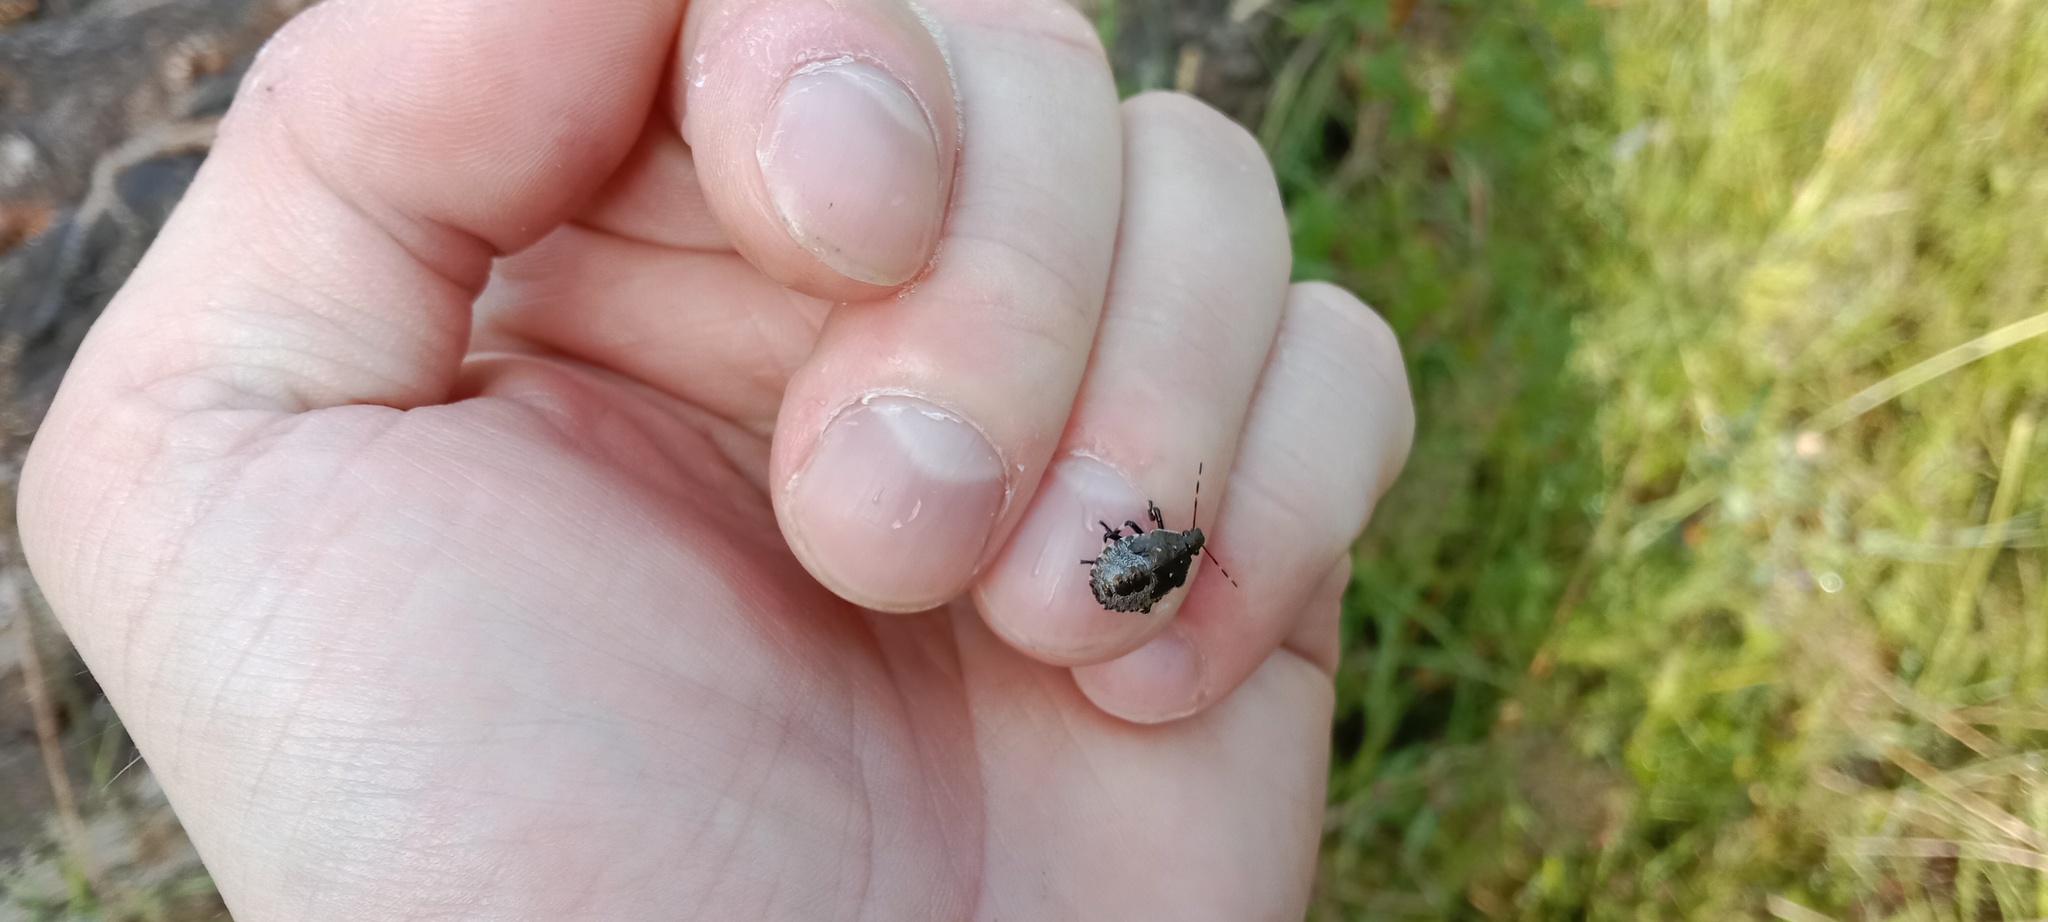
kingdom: Animalia
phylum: Arthropoda
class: Insecta
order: Hemiptera
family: Pentatomidae
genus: Picromerus
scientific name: Picromerus bidens
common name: Spiked shieldbug
